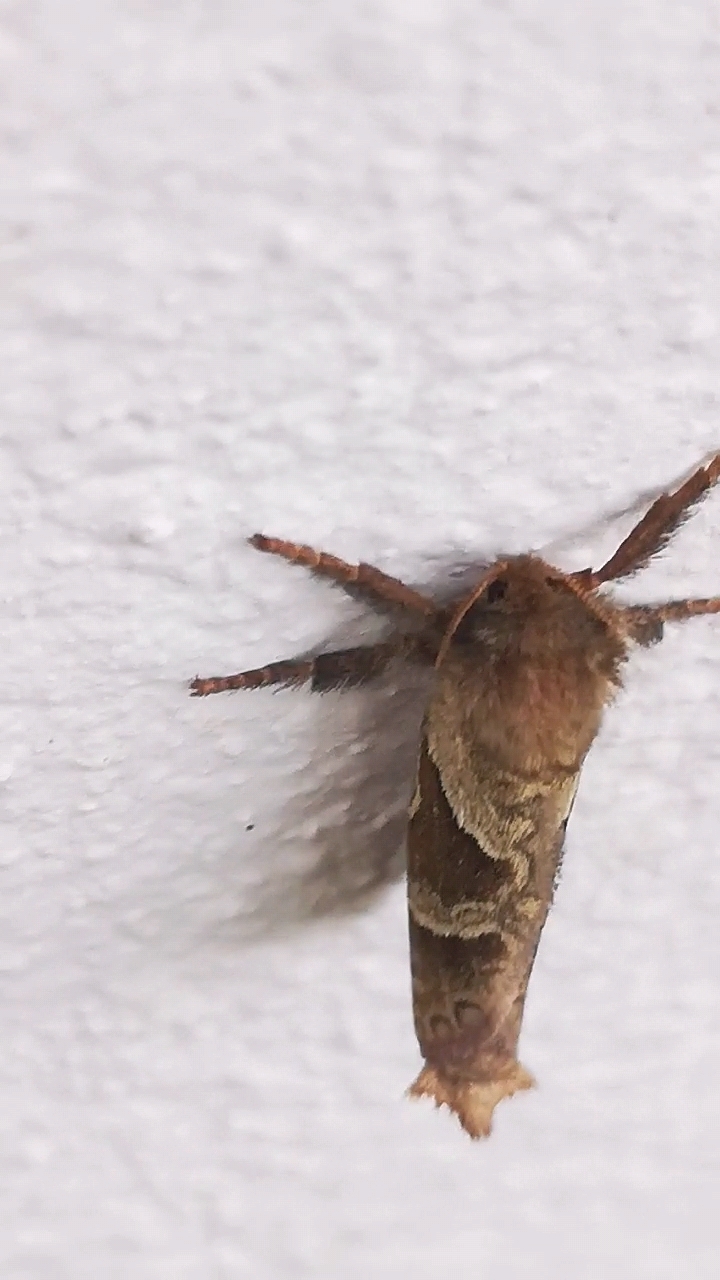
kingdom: Animalia
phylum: Arthropoda
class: Insecta
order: Lepidoptera
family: Hepialidae
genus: Triodia
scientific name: Triodia sylvina
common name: Orange swift
